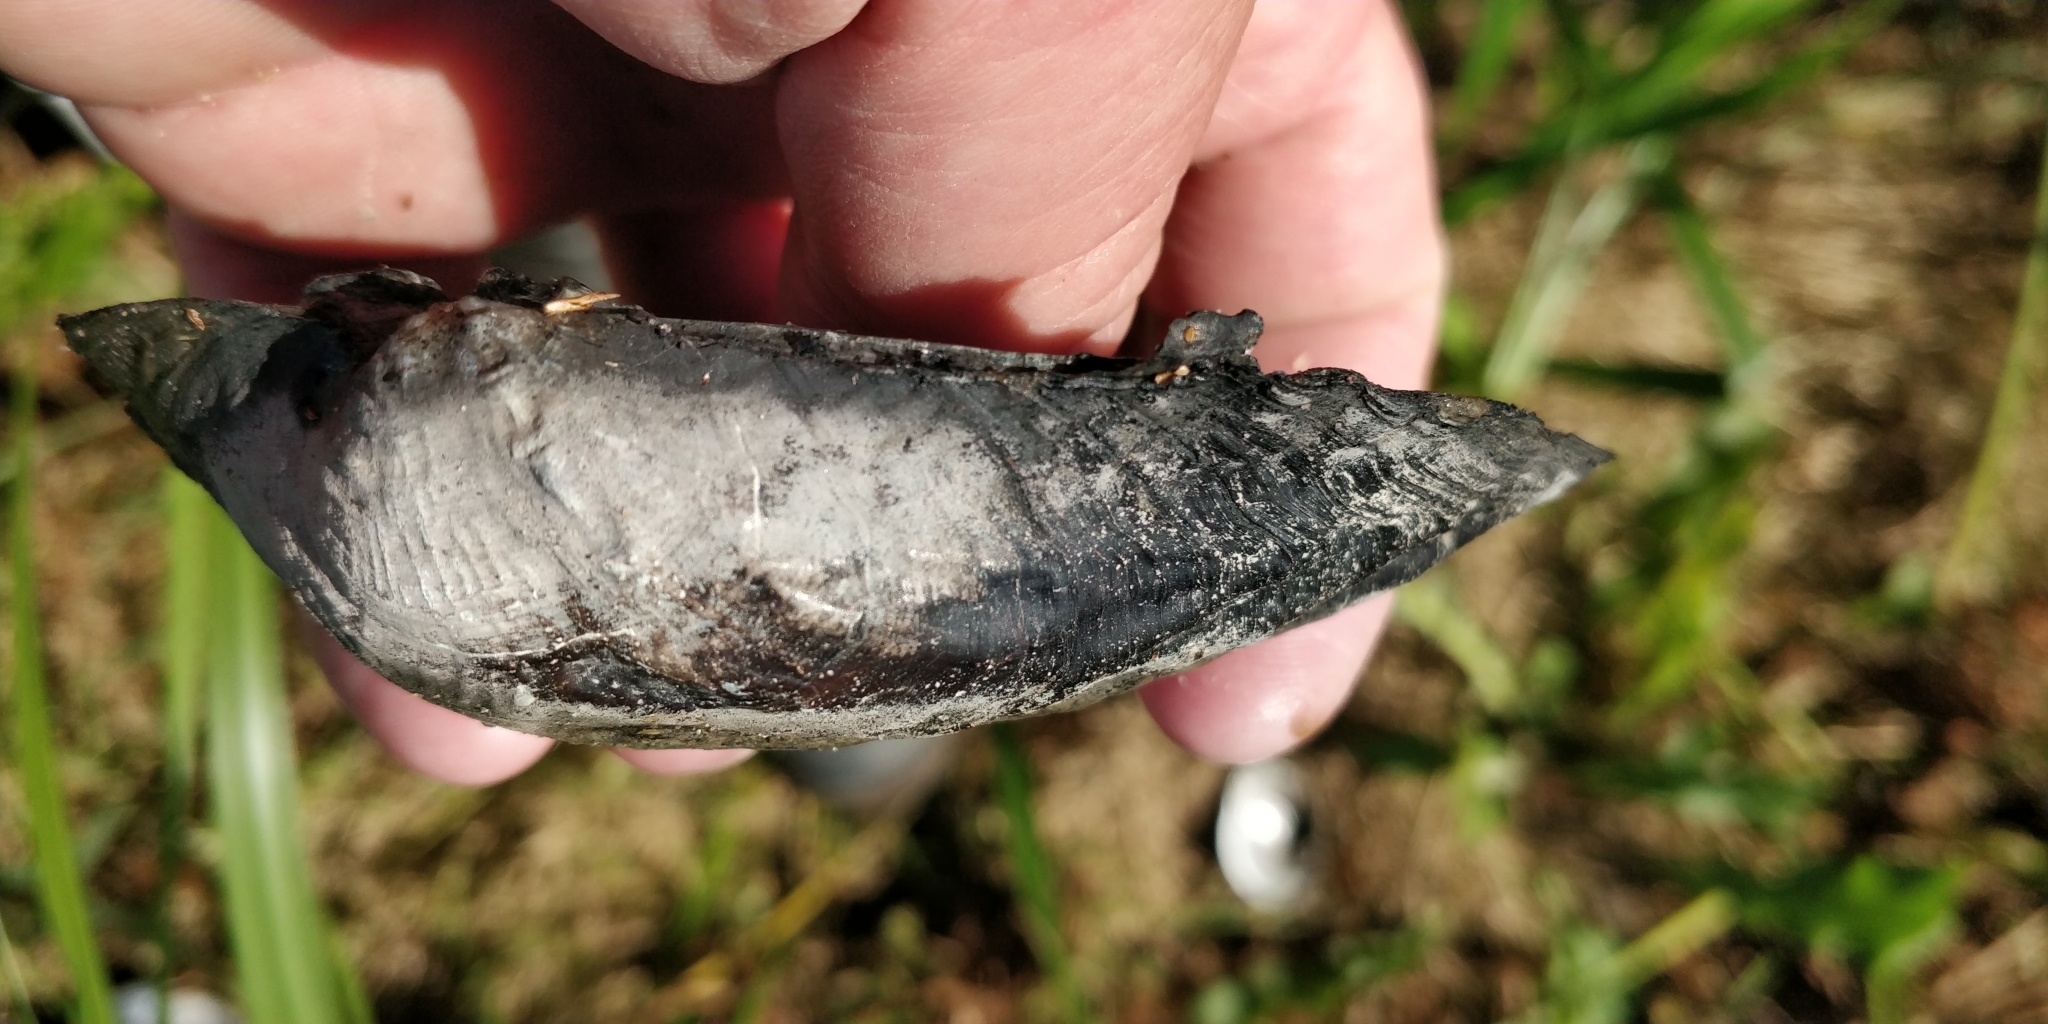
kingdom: Animalia
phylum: Mollusca
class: Bivalvia
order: Unionida
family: Unionidae
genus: Arcidens
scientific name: Arcidens confragosus
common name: Rock pocketbook
